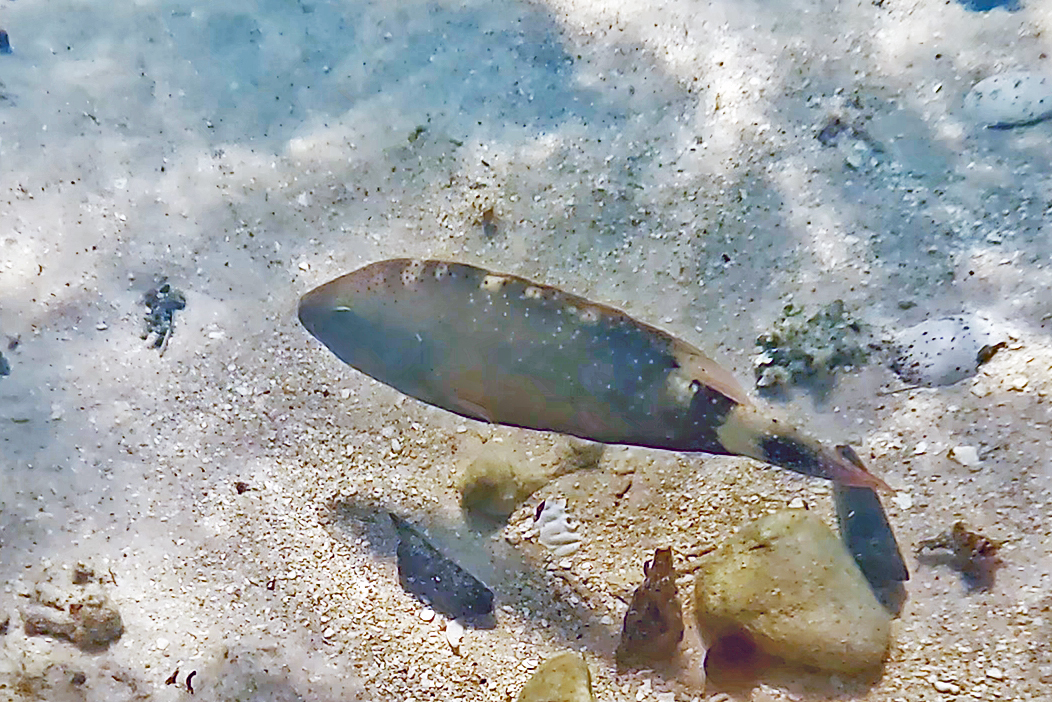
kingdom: Animalia
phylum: Chordata
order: Perciformes
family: Labridae
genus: Cheilinus
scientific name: Cheilinus chlorourus
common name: Floral wrasse
